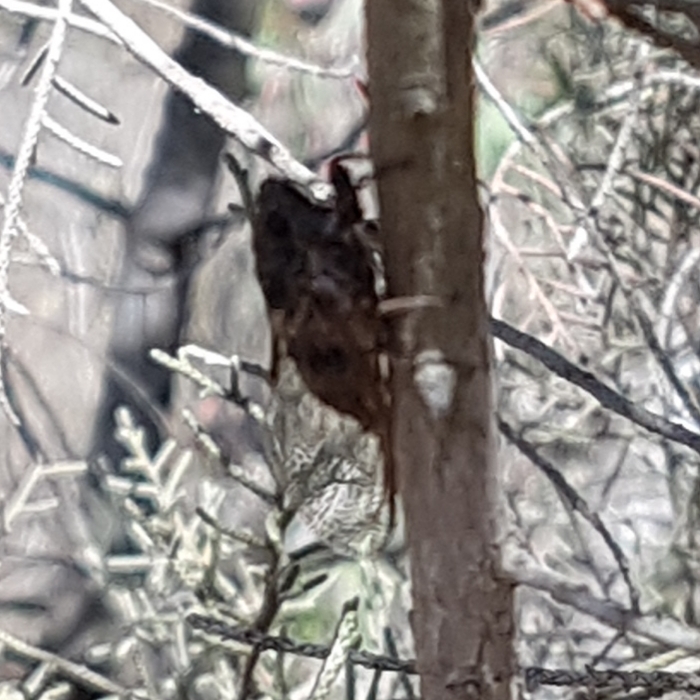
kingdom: Animalia
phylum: Arthropoda
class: Insecta
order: Hemiptera
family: Cicadidae
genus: Tettigettalna
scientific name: Tettigettalna argentata
